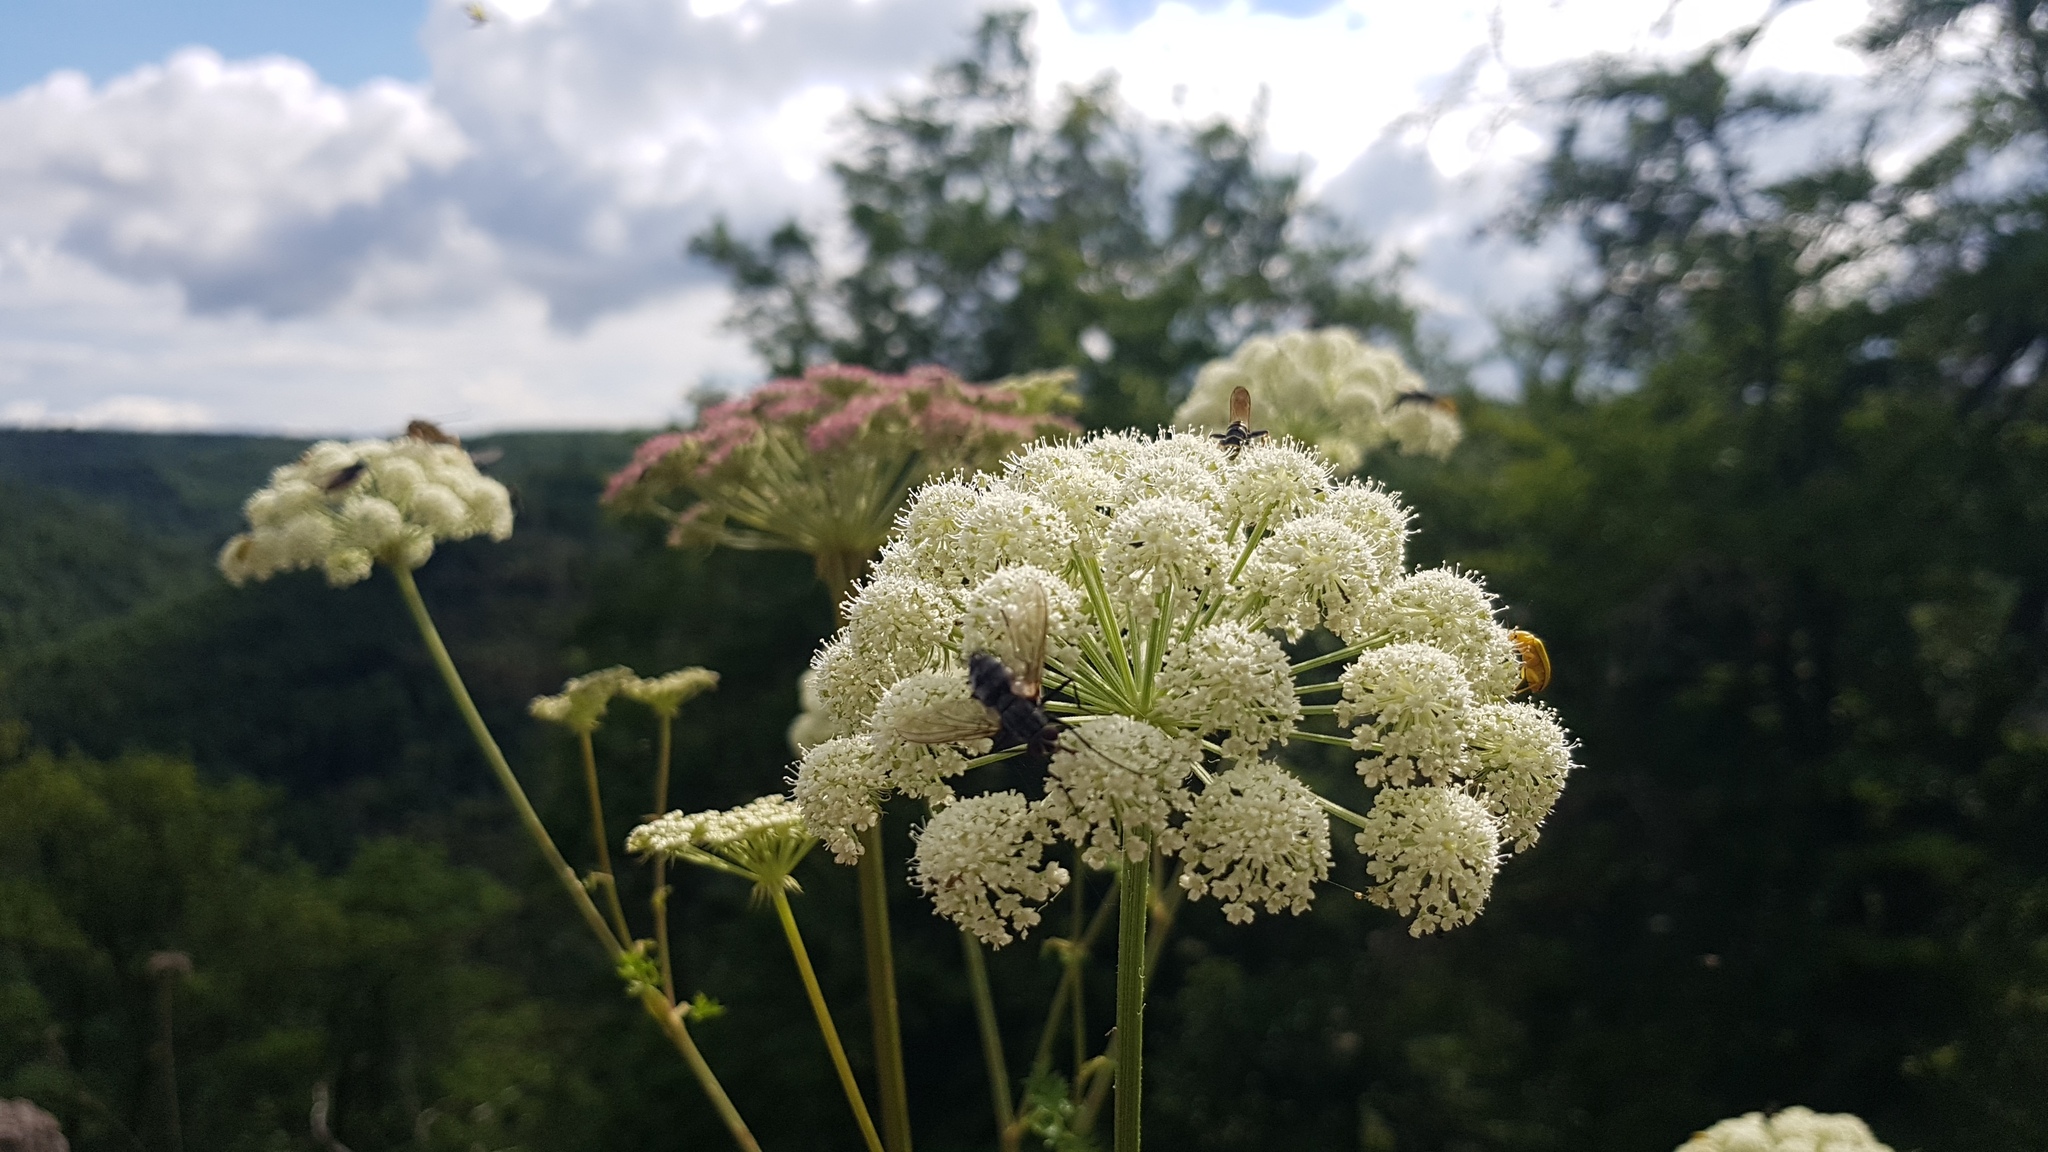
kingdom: Plantae
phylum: Tracheophyta
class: Magnoliopsida
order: Apiales
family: Apiaceae
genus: Seseli
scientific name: Seseli libanotis
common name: Mooncarrot
